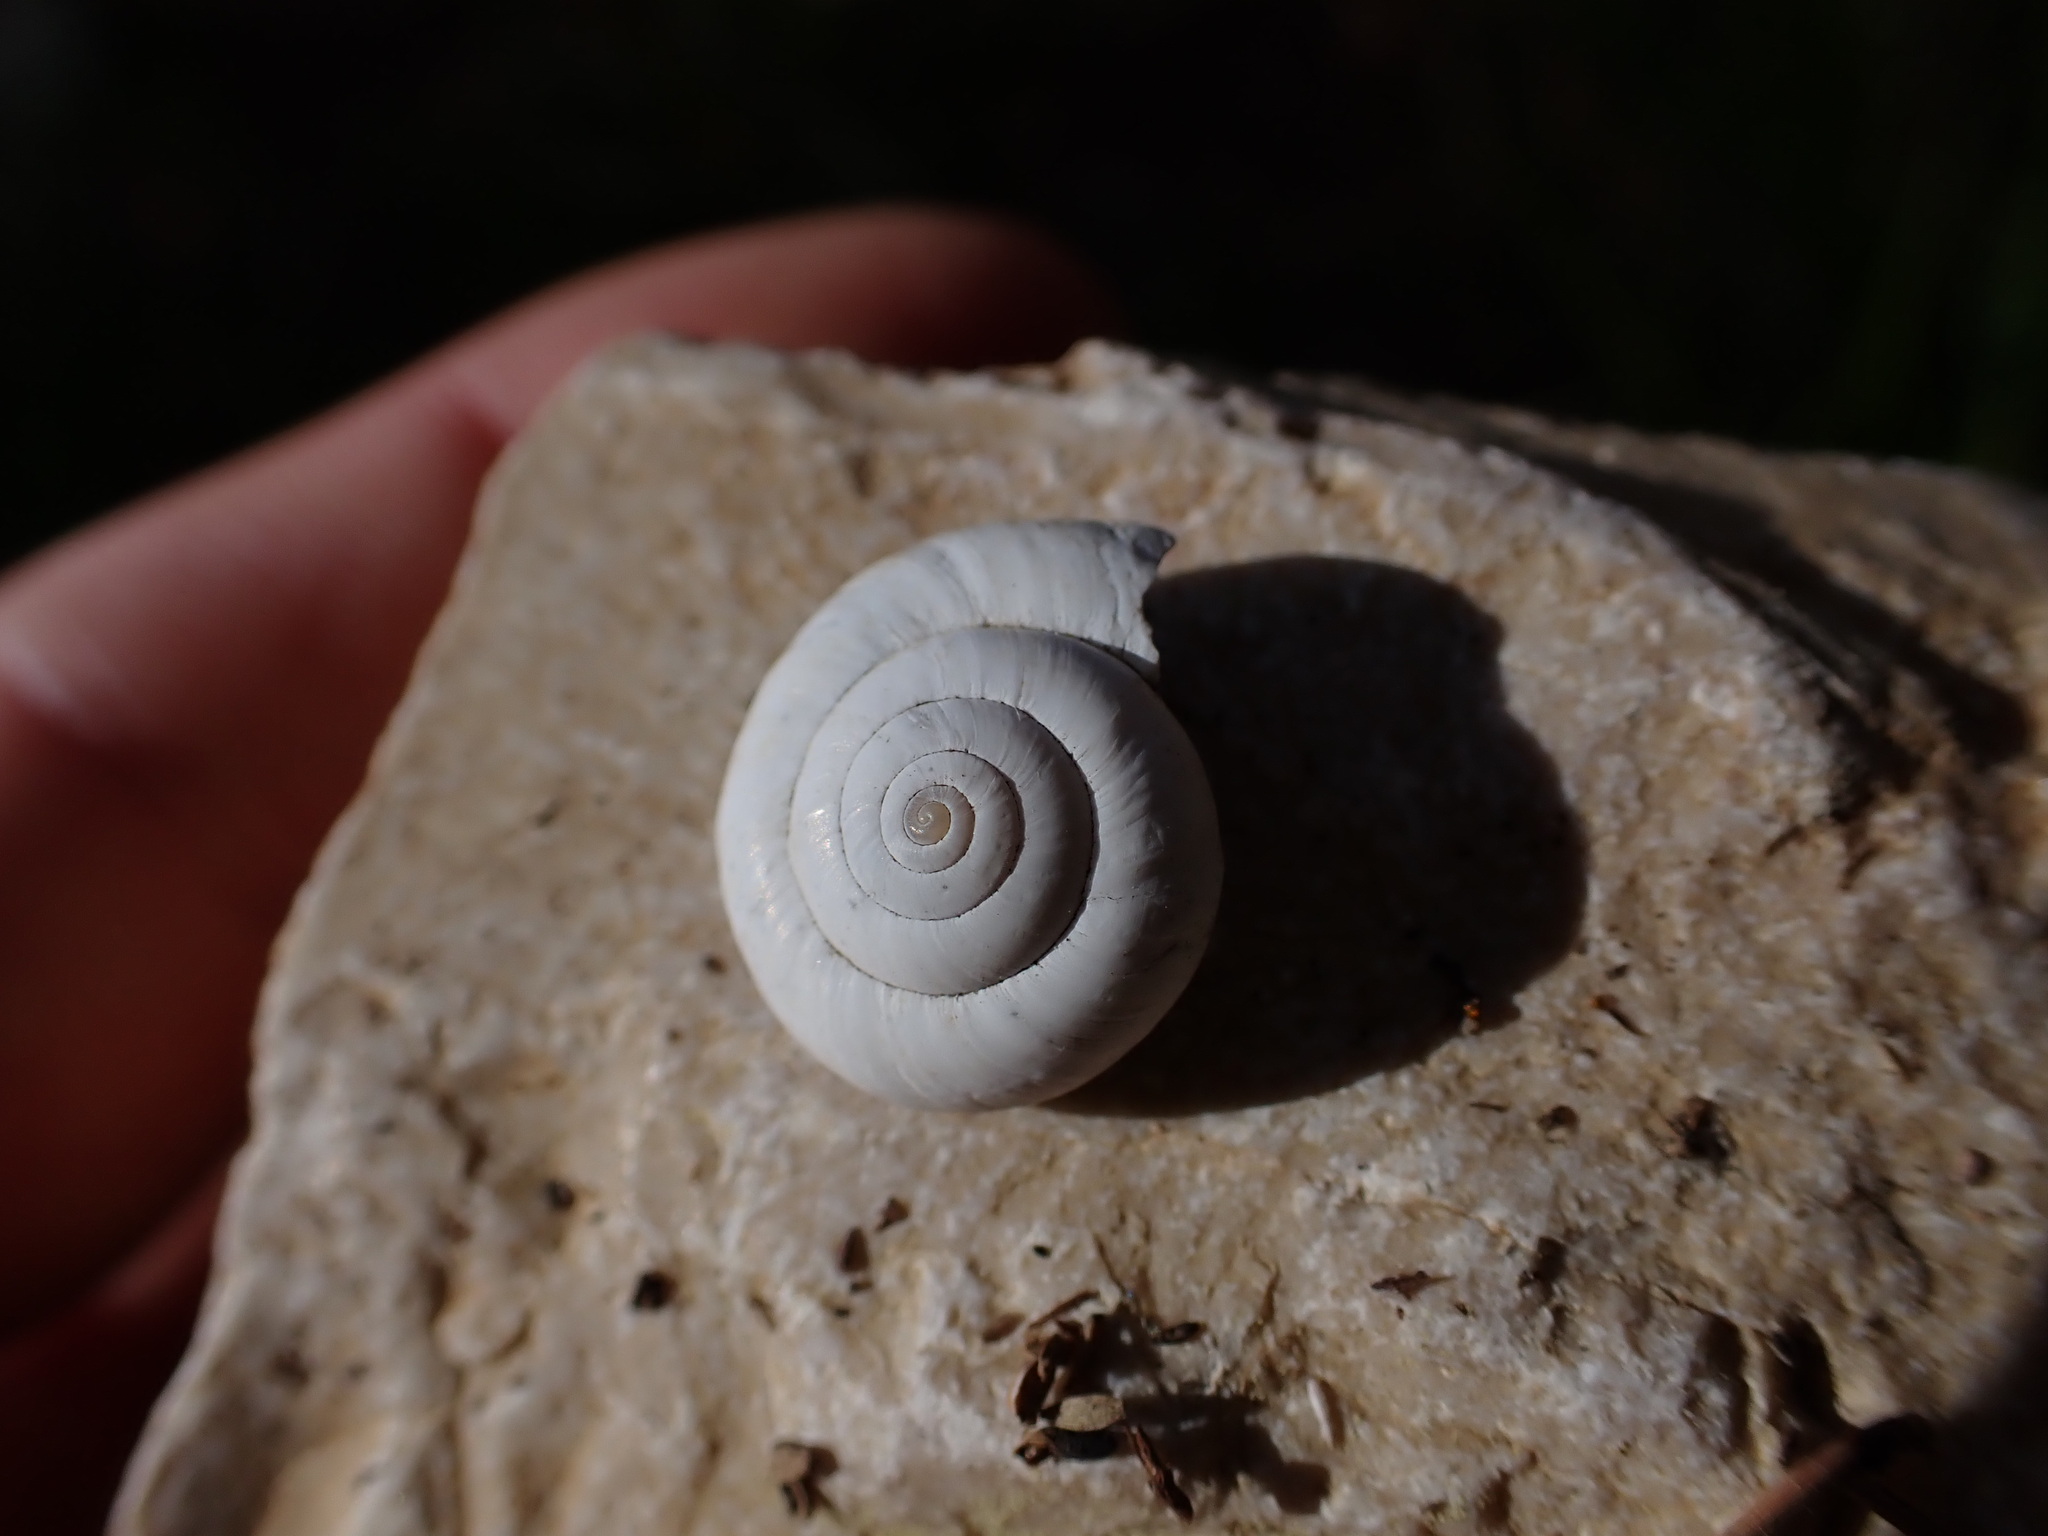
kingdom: Animalia
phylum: Mollusca
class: Gastropoda
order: Stylommatophora
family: Geomitridae
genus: Xeropicta
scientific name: Xeropicta derbentina
